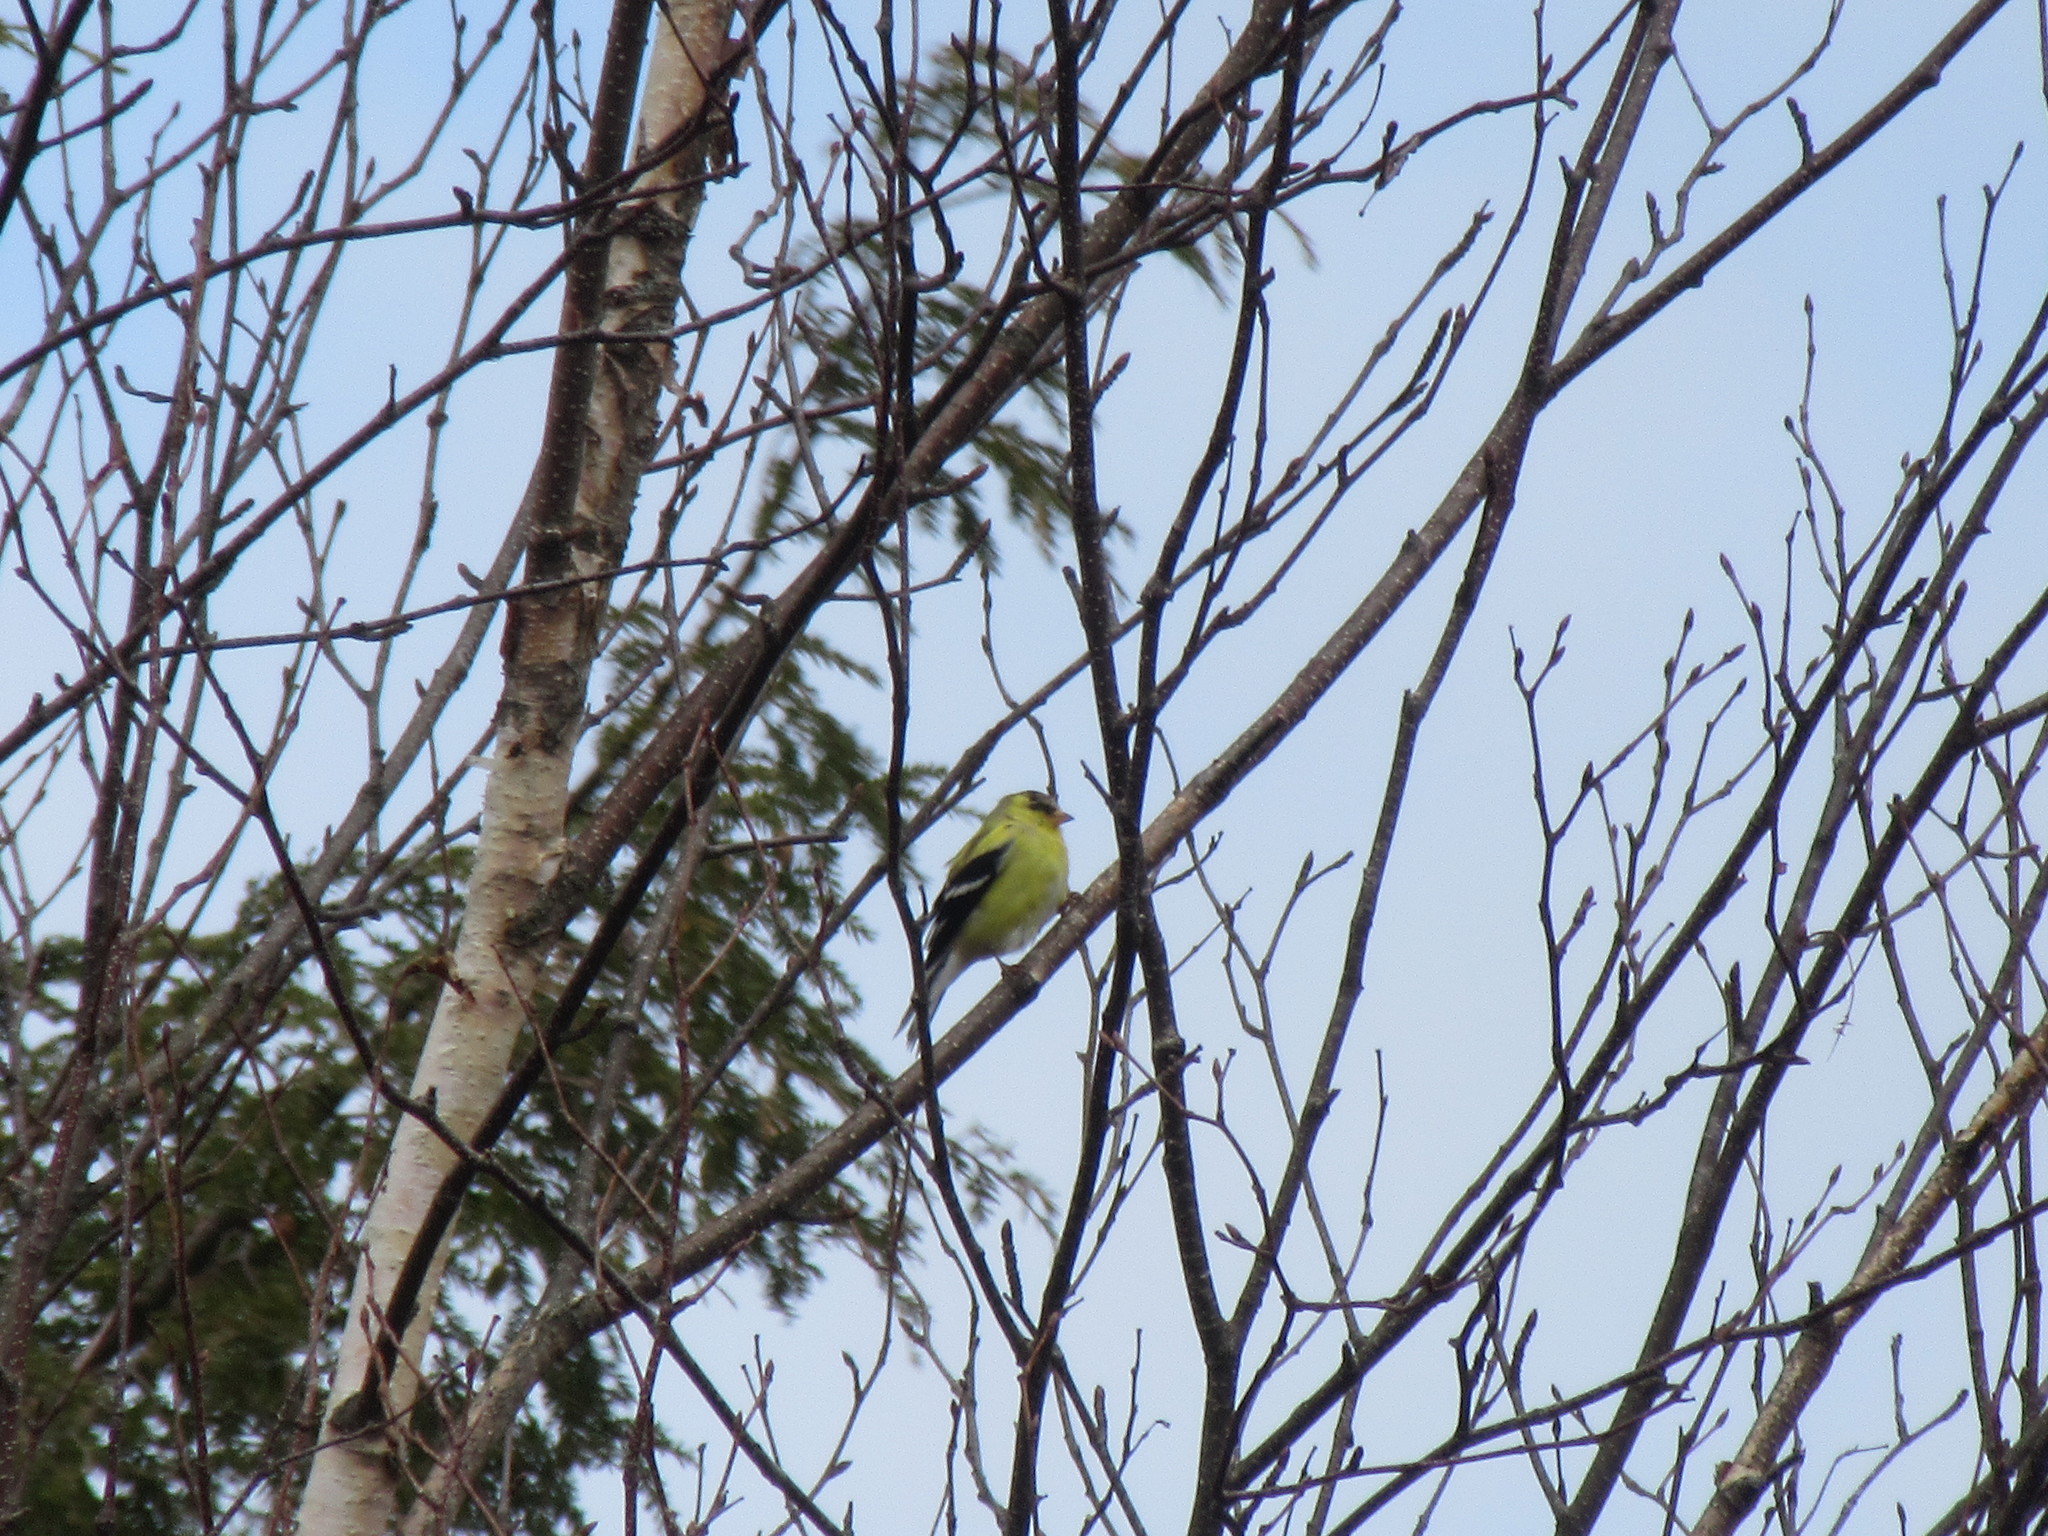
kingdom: Animalia
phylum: Chordata
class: Aves
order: Passeriformes
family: Fringillidae
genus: Spinus
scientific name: Spinus tristis
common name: American goldfinch
